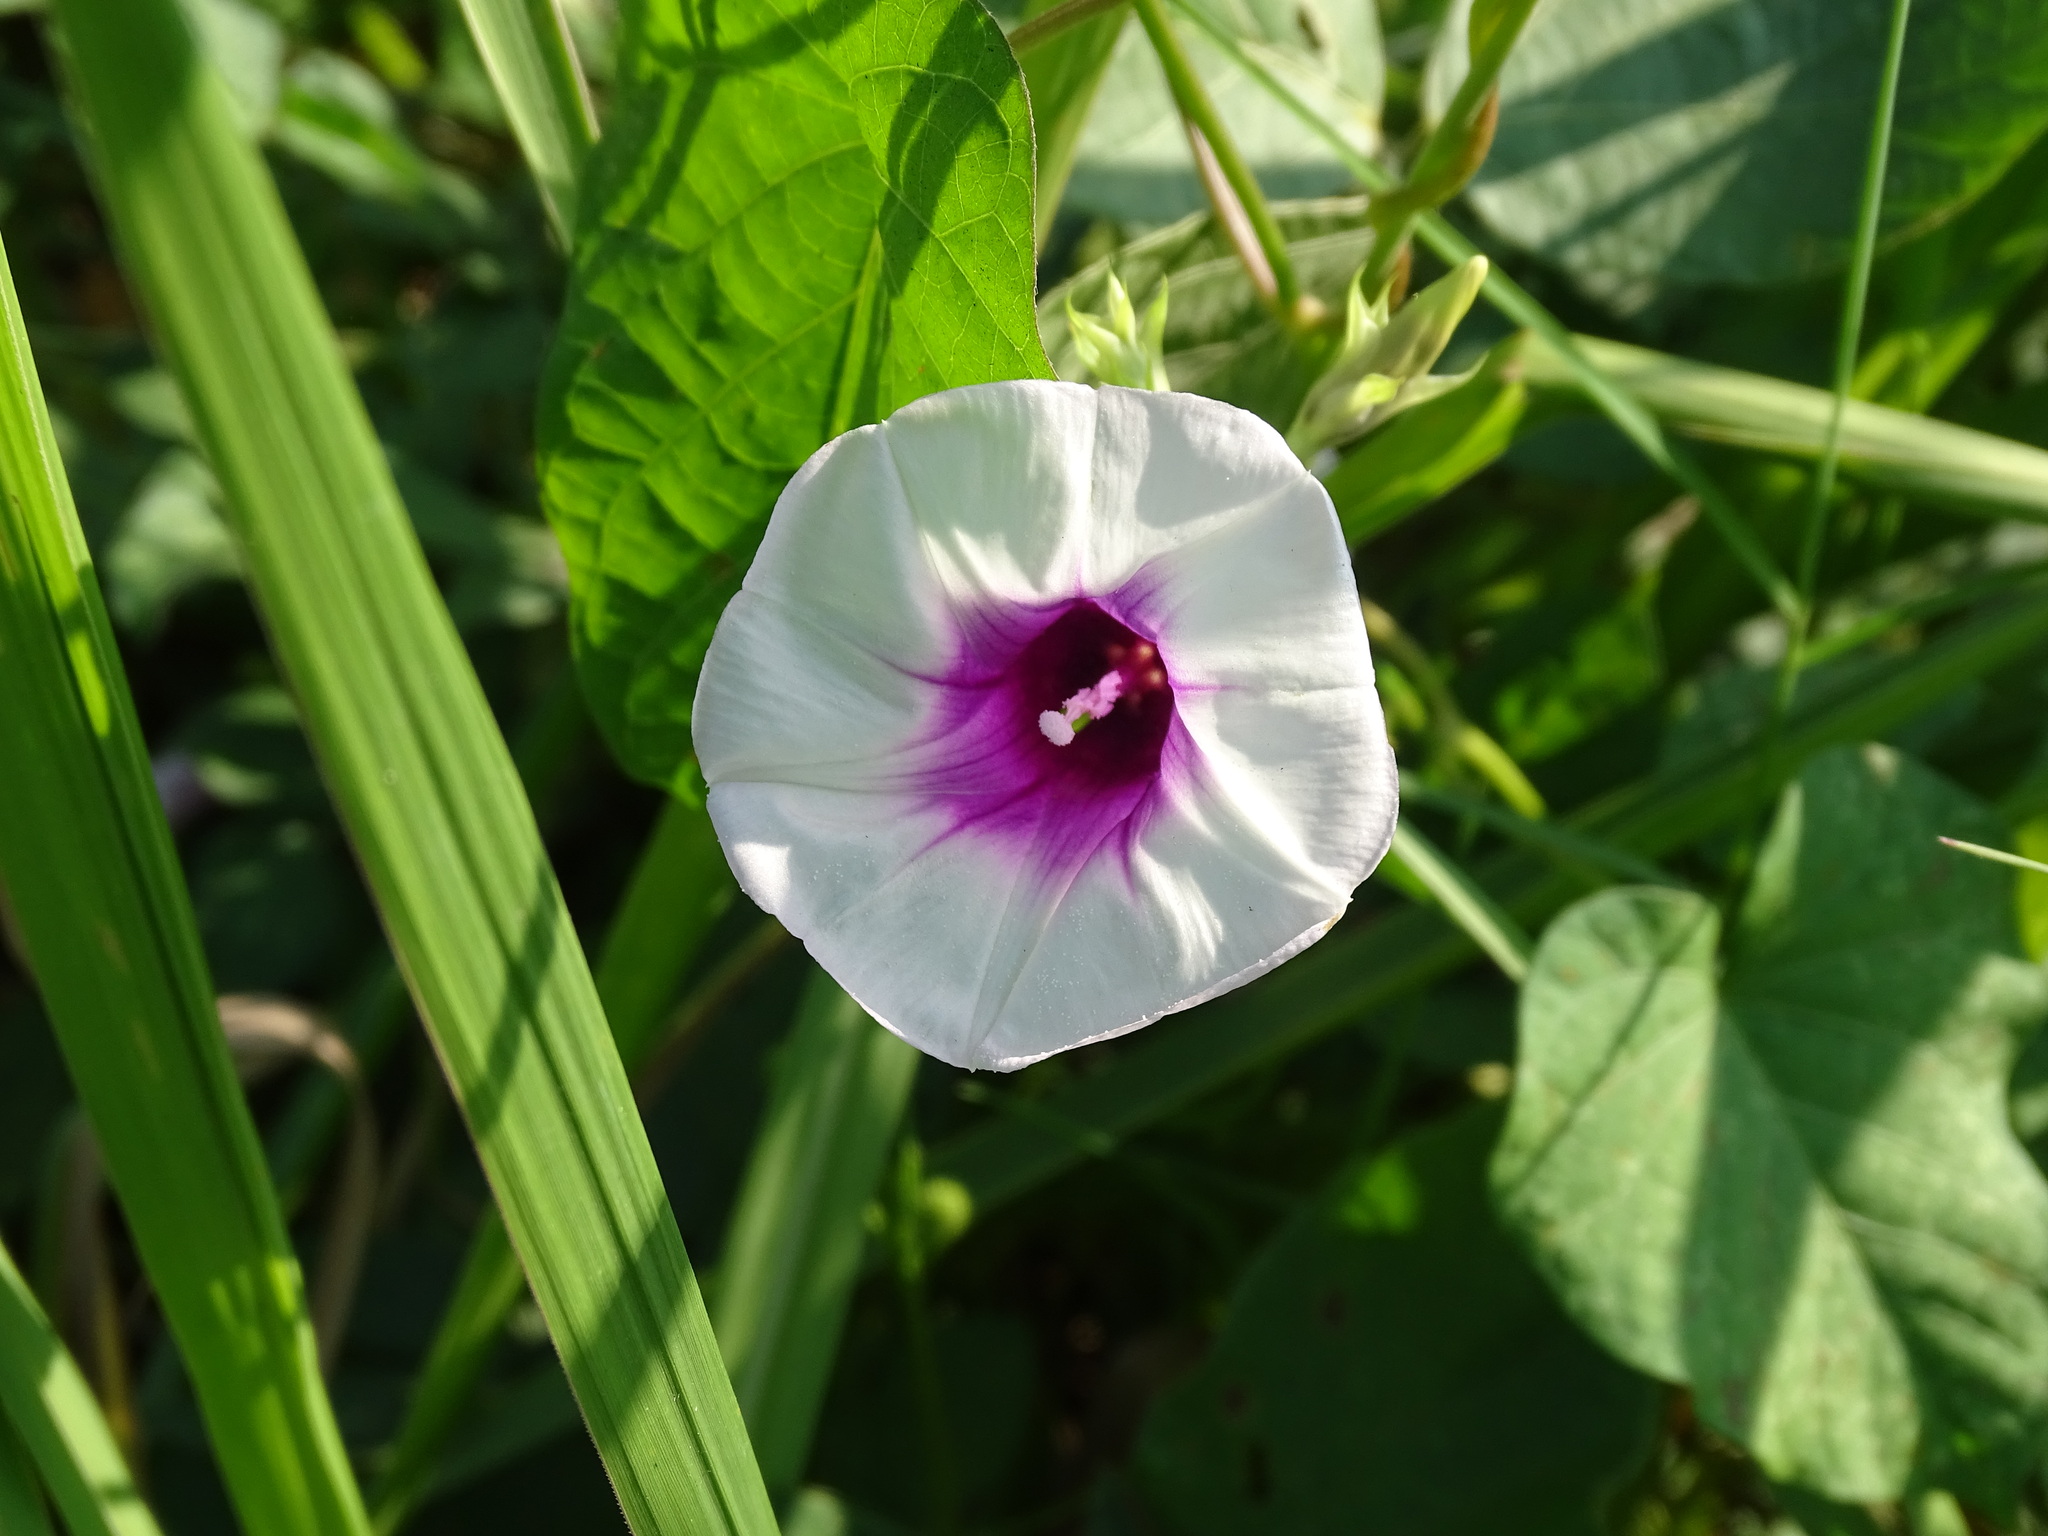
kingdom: Plantae
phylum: Tracheophyta
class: Magnoliopsida
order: Solanales
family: Convolvulaceae
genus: Ipomoea
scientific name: Ipomoea batatas
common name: Sweet-potato
